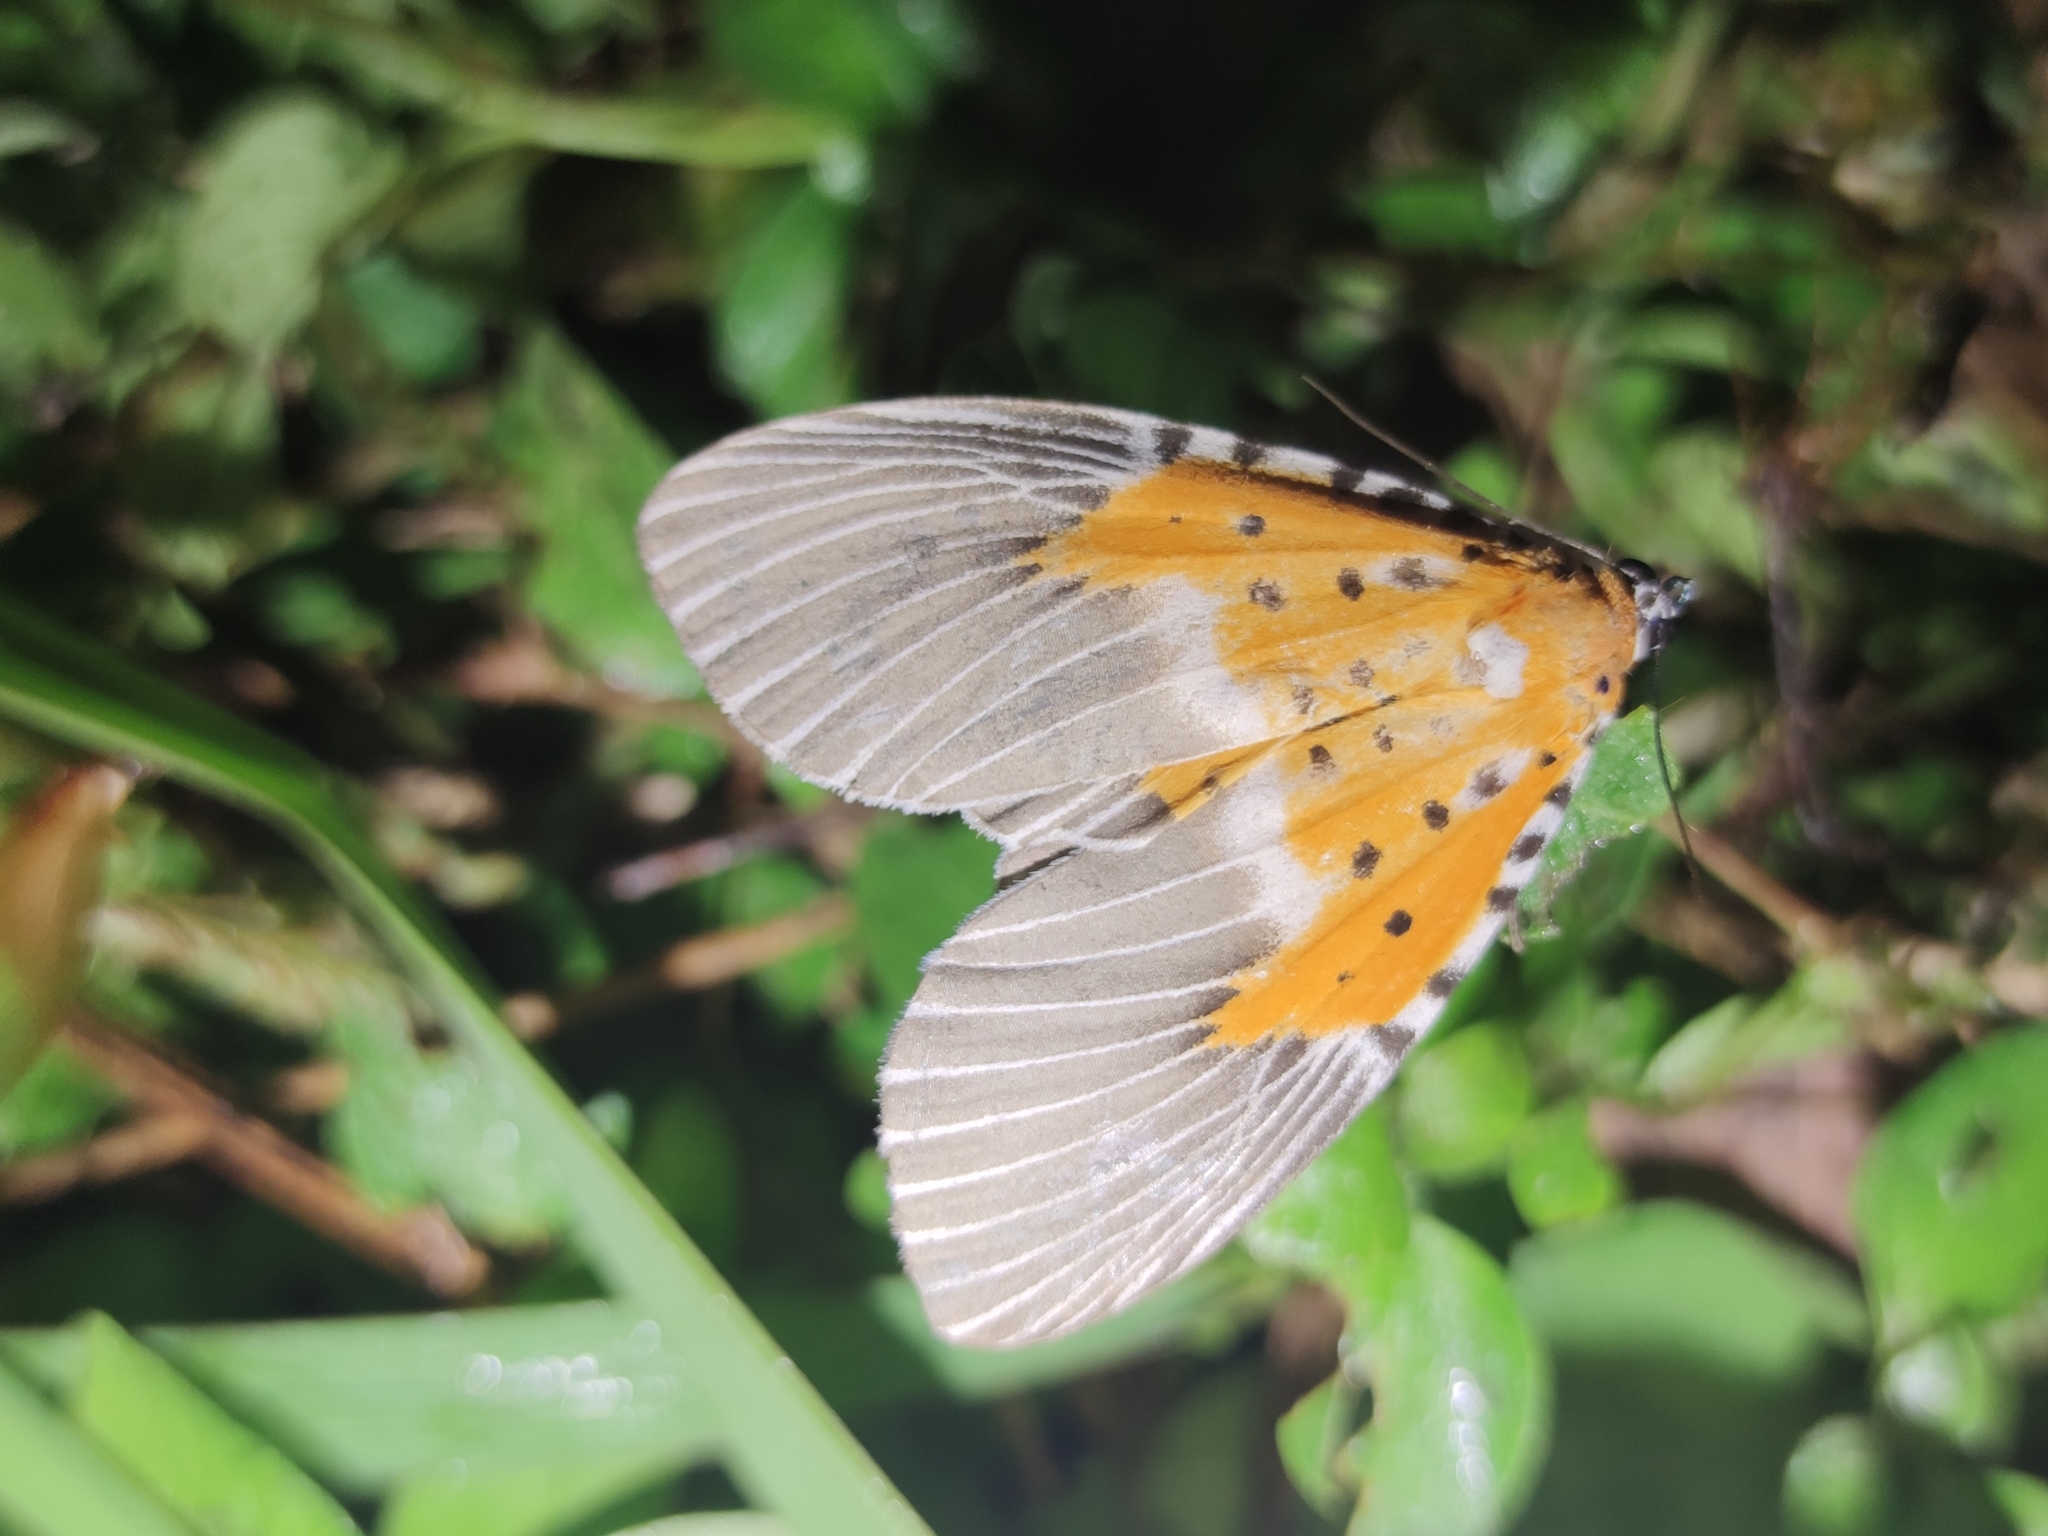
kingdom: Animalia
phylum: Arthropoda
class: Insecta
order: Lepidoptera
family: Erebidae
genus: Peridrome
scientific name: Peridrome subfascia
